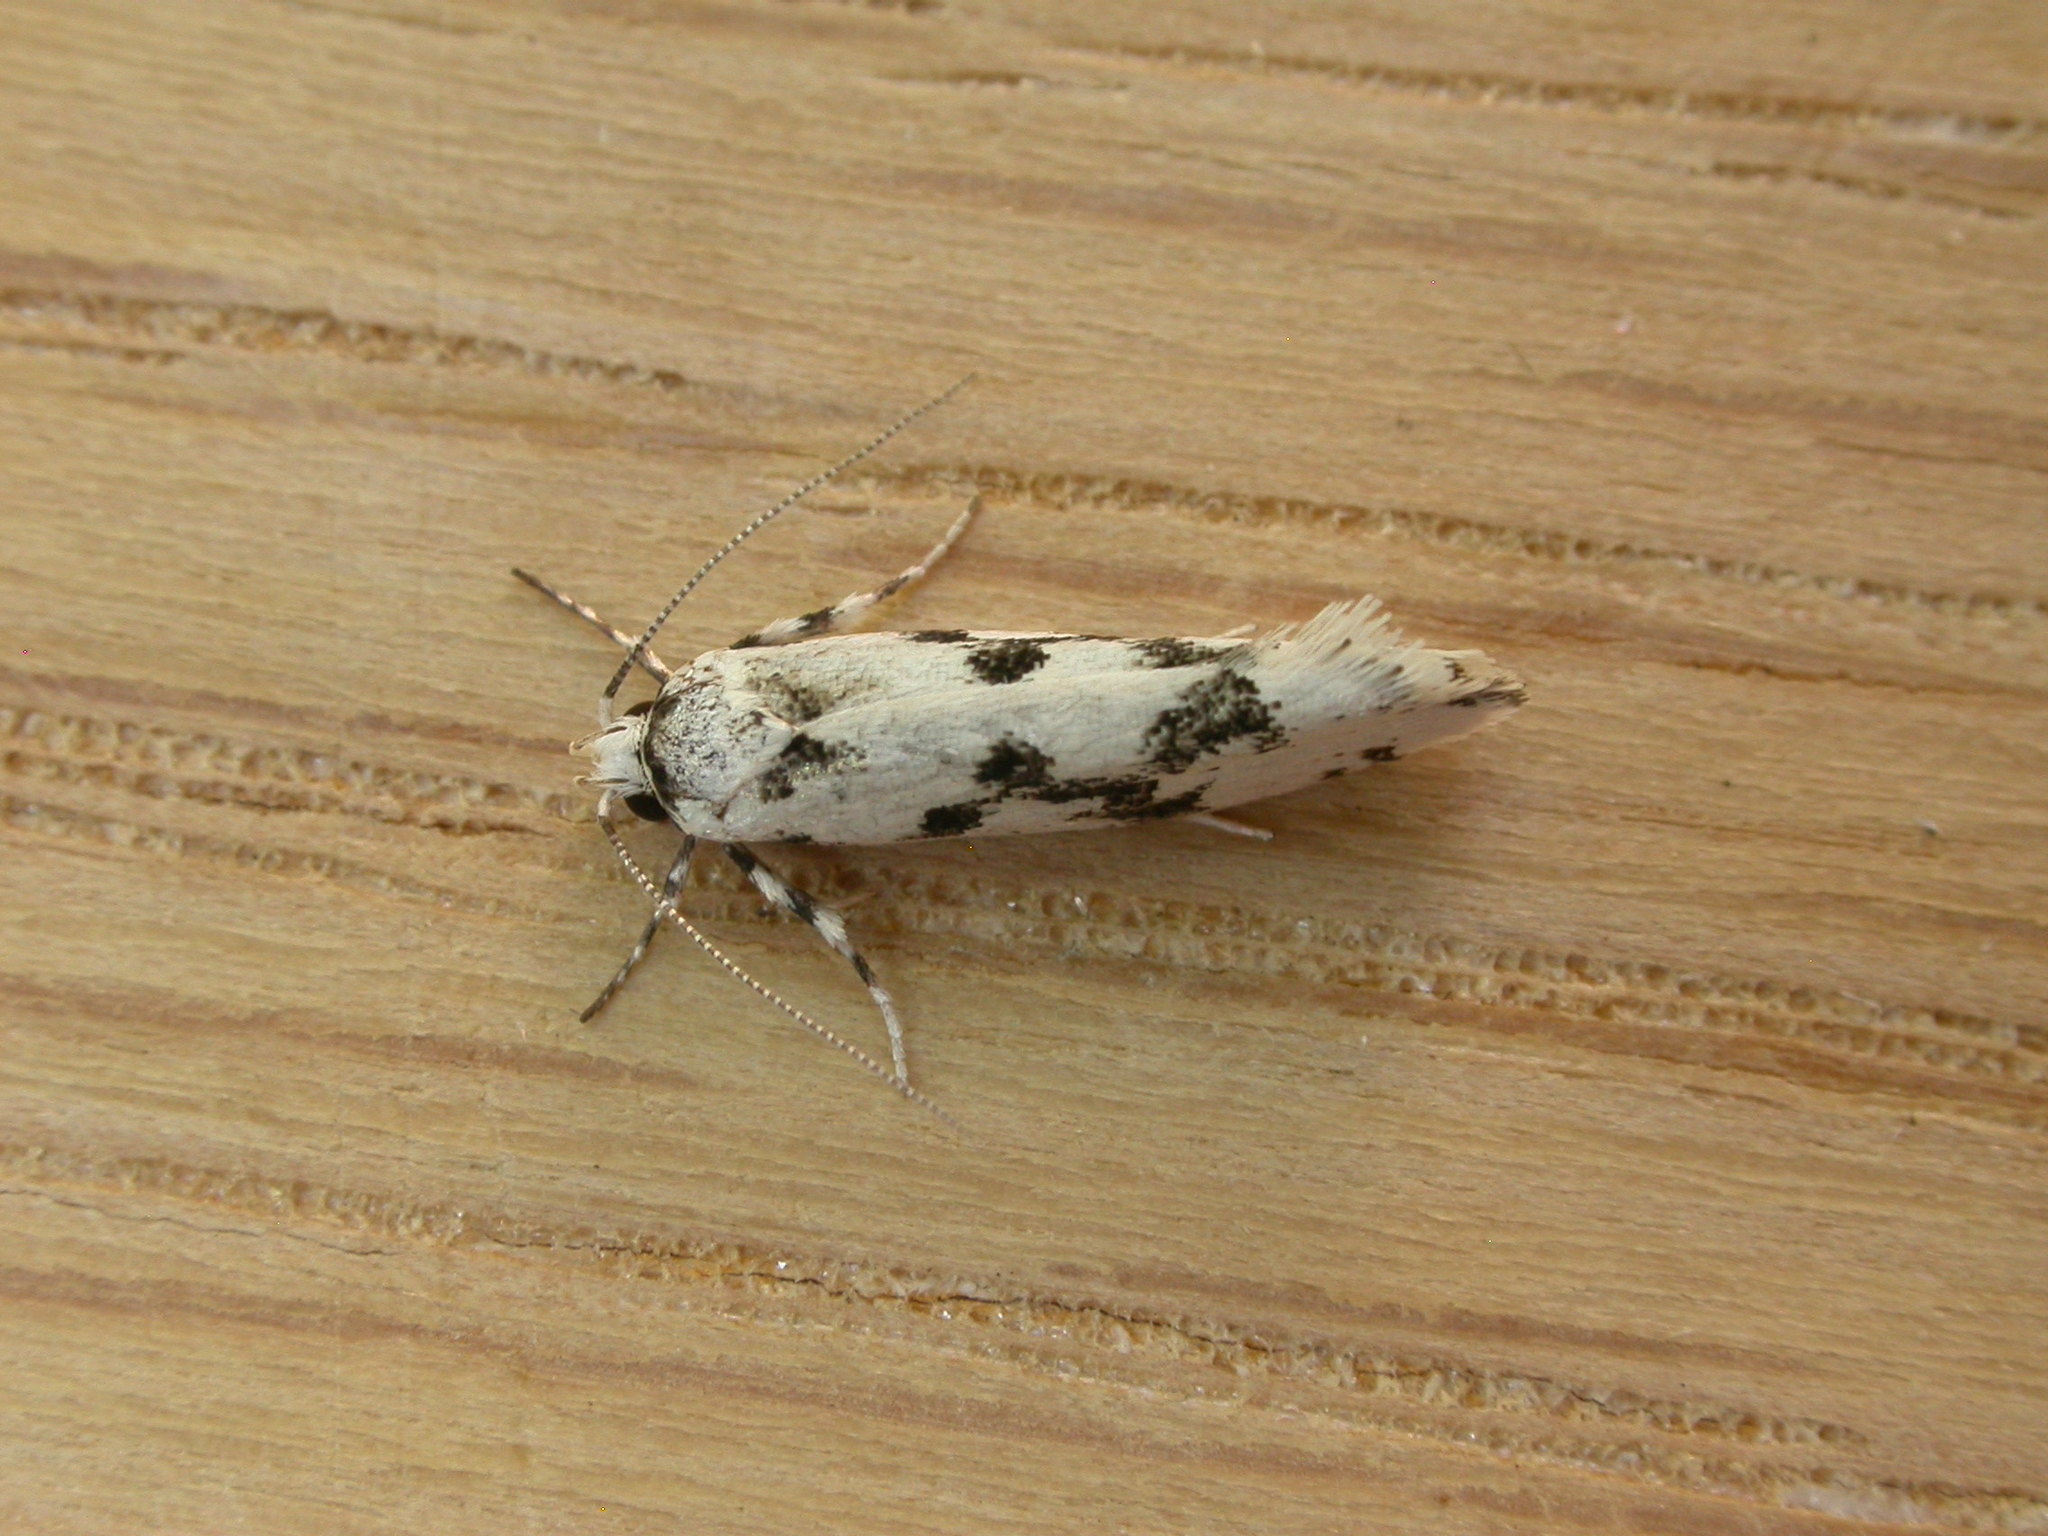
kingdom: Animalia
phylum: Arthropoda
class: Insecta
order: Lepidoptera
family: Xyloryctidae
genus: Lichenaula
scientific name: Lichenaula calligrapha
